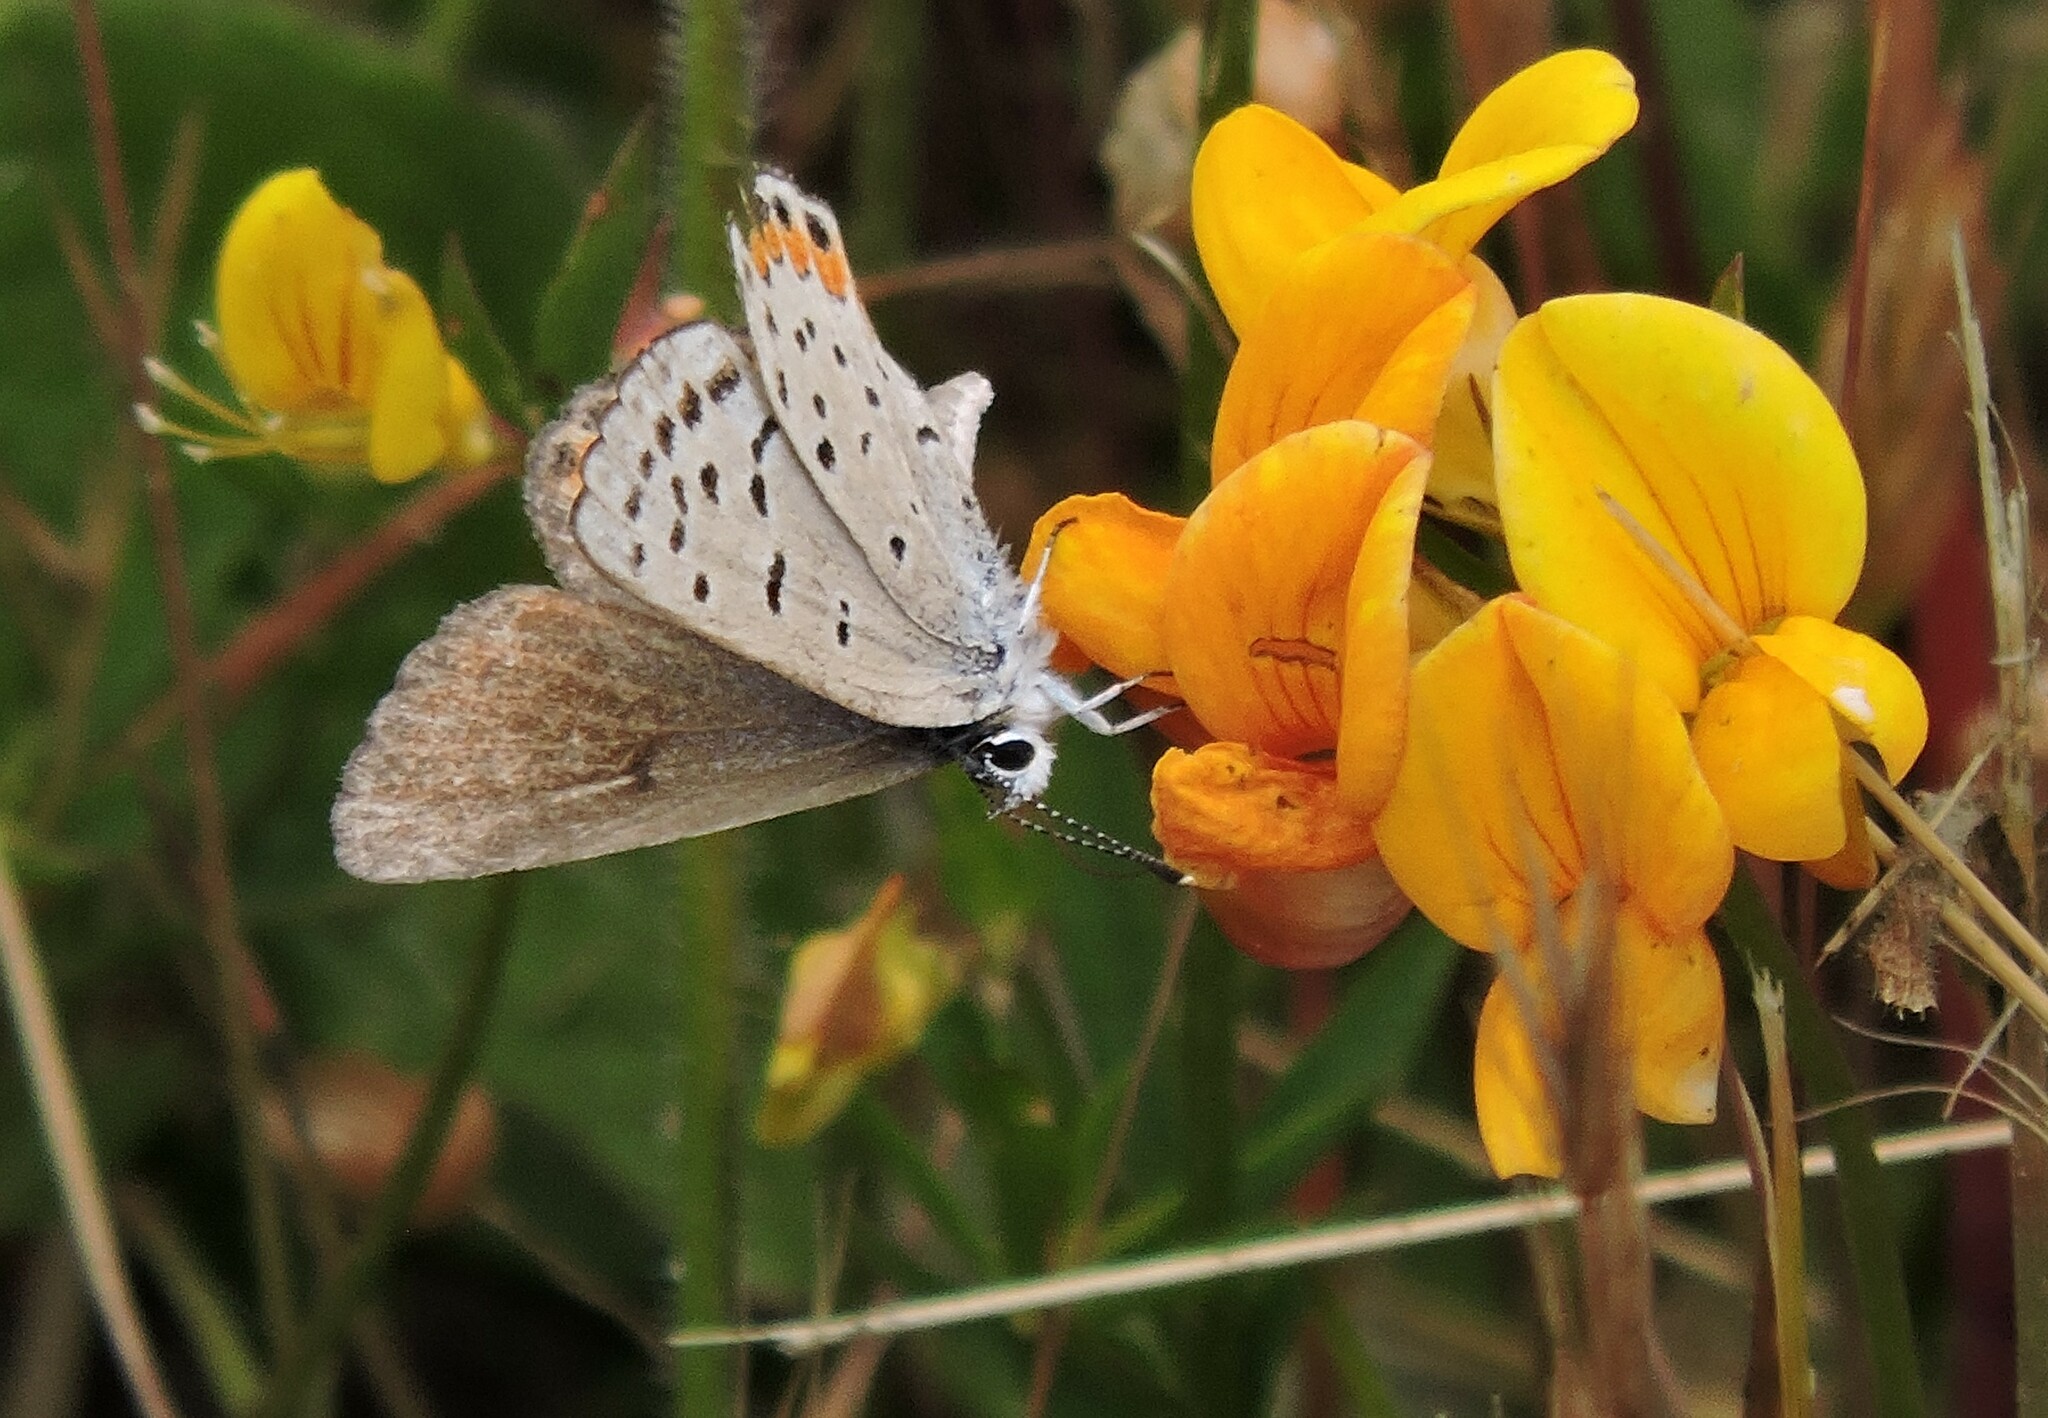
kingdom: Animalia
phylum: Arthropoda
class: Insecta
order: Lepidoptera
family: Lycaenidae
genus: Icaricia
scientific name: Icaricia acmon
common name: Acmon blue
